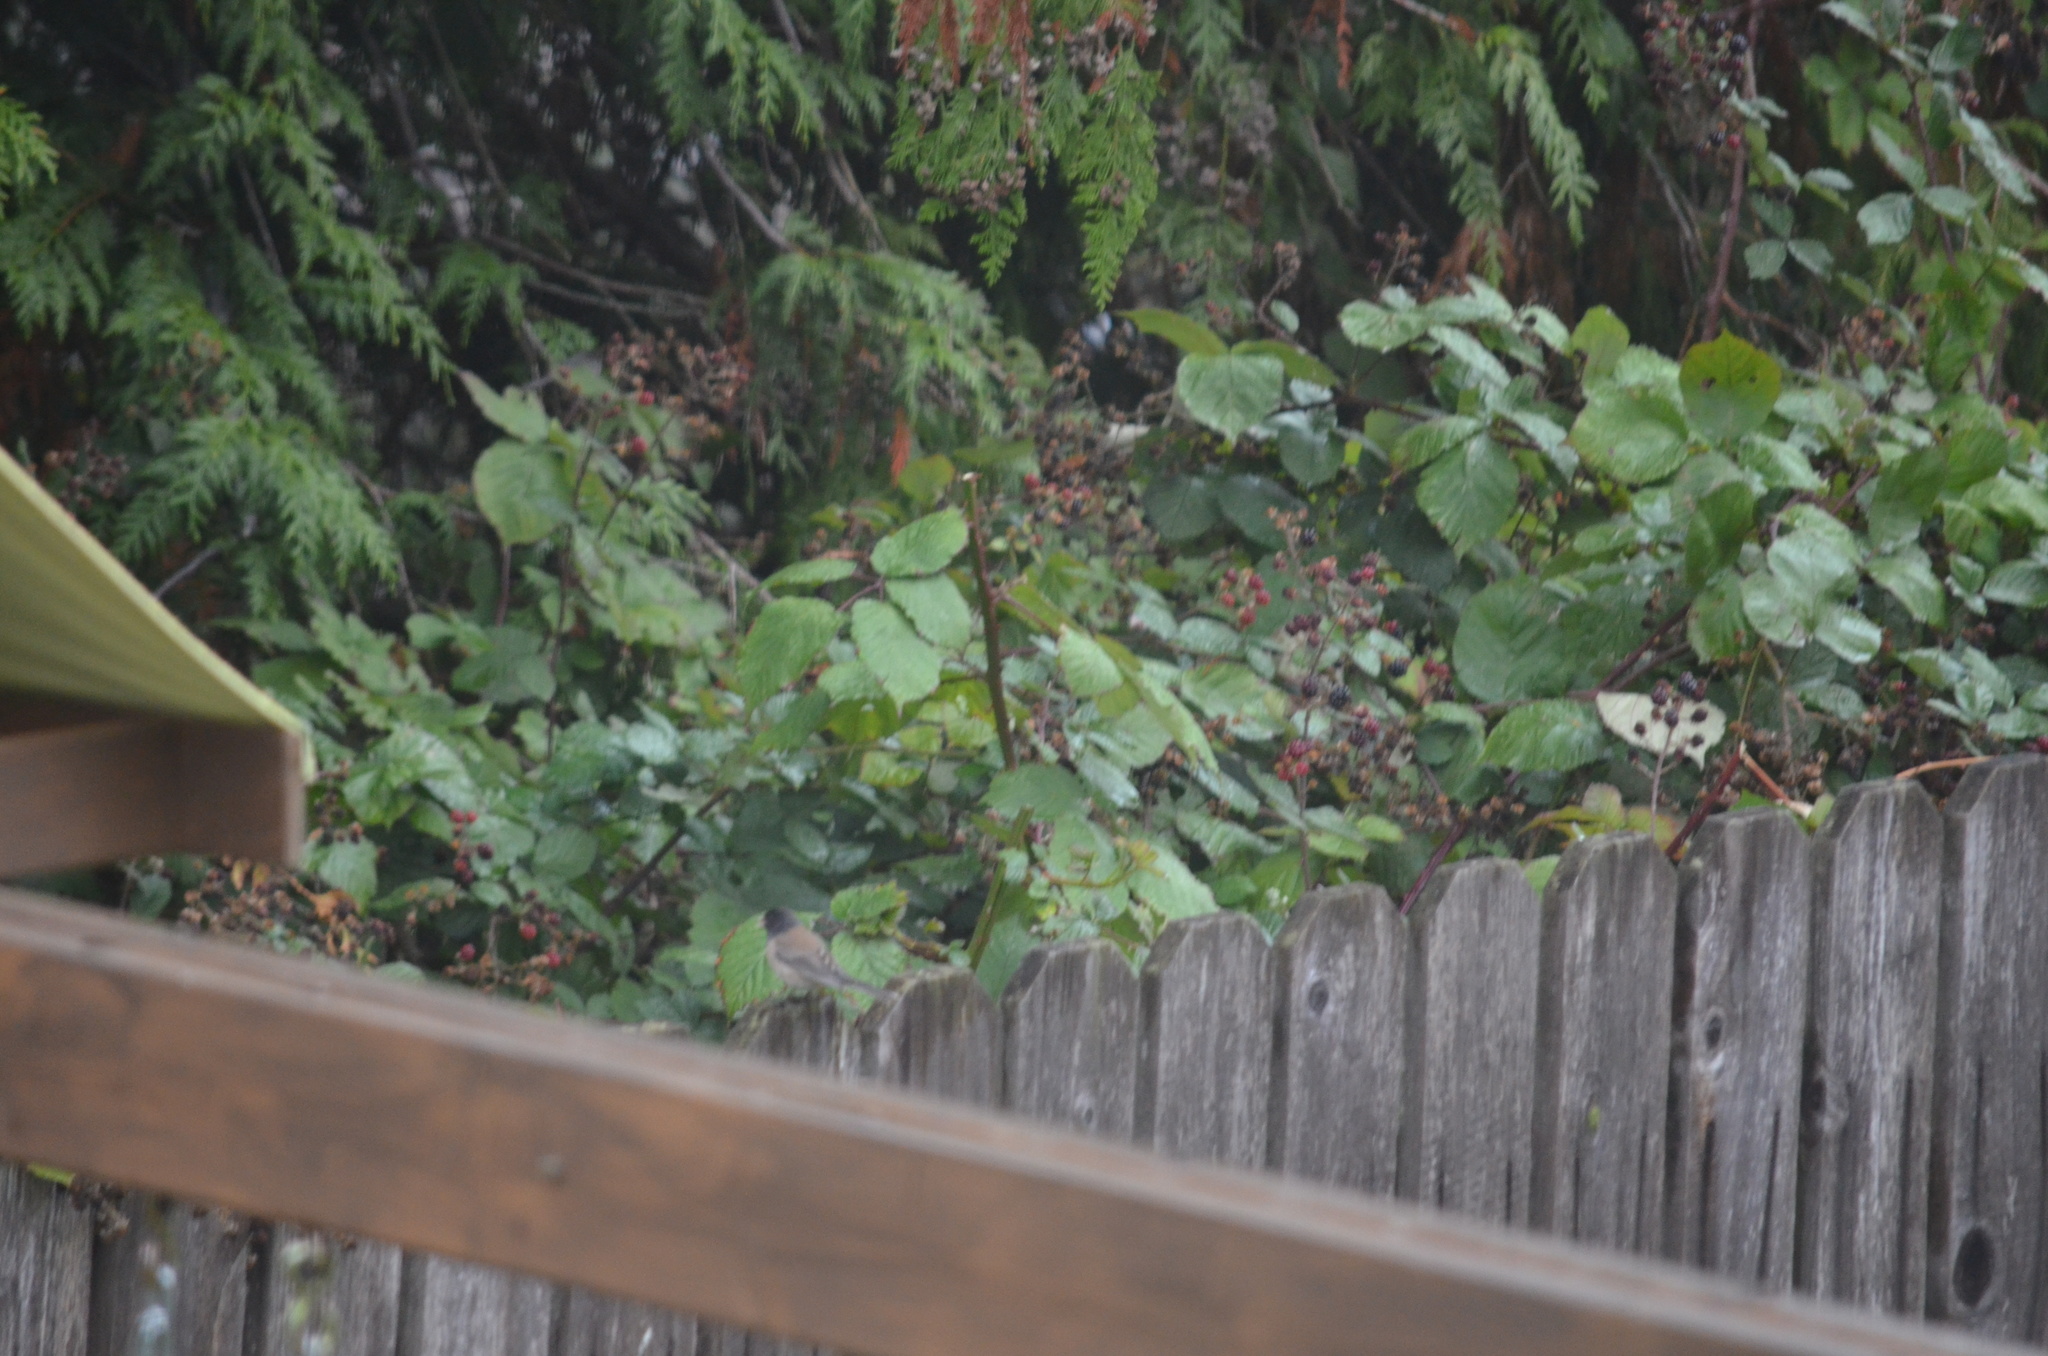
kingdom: Animalia
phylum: Chordata
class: Aves
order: Passeriformes
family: Passerellidae
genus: Junco
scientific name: Junco hyemalis
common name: Dark-eyed junco
